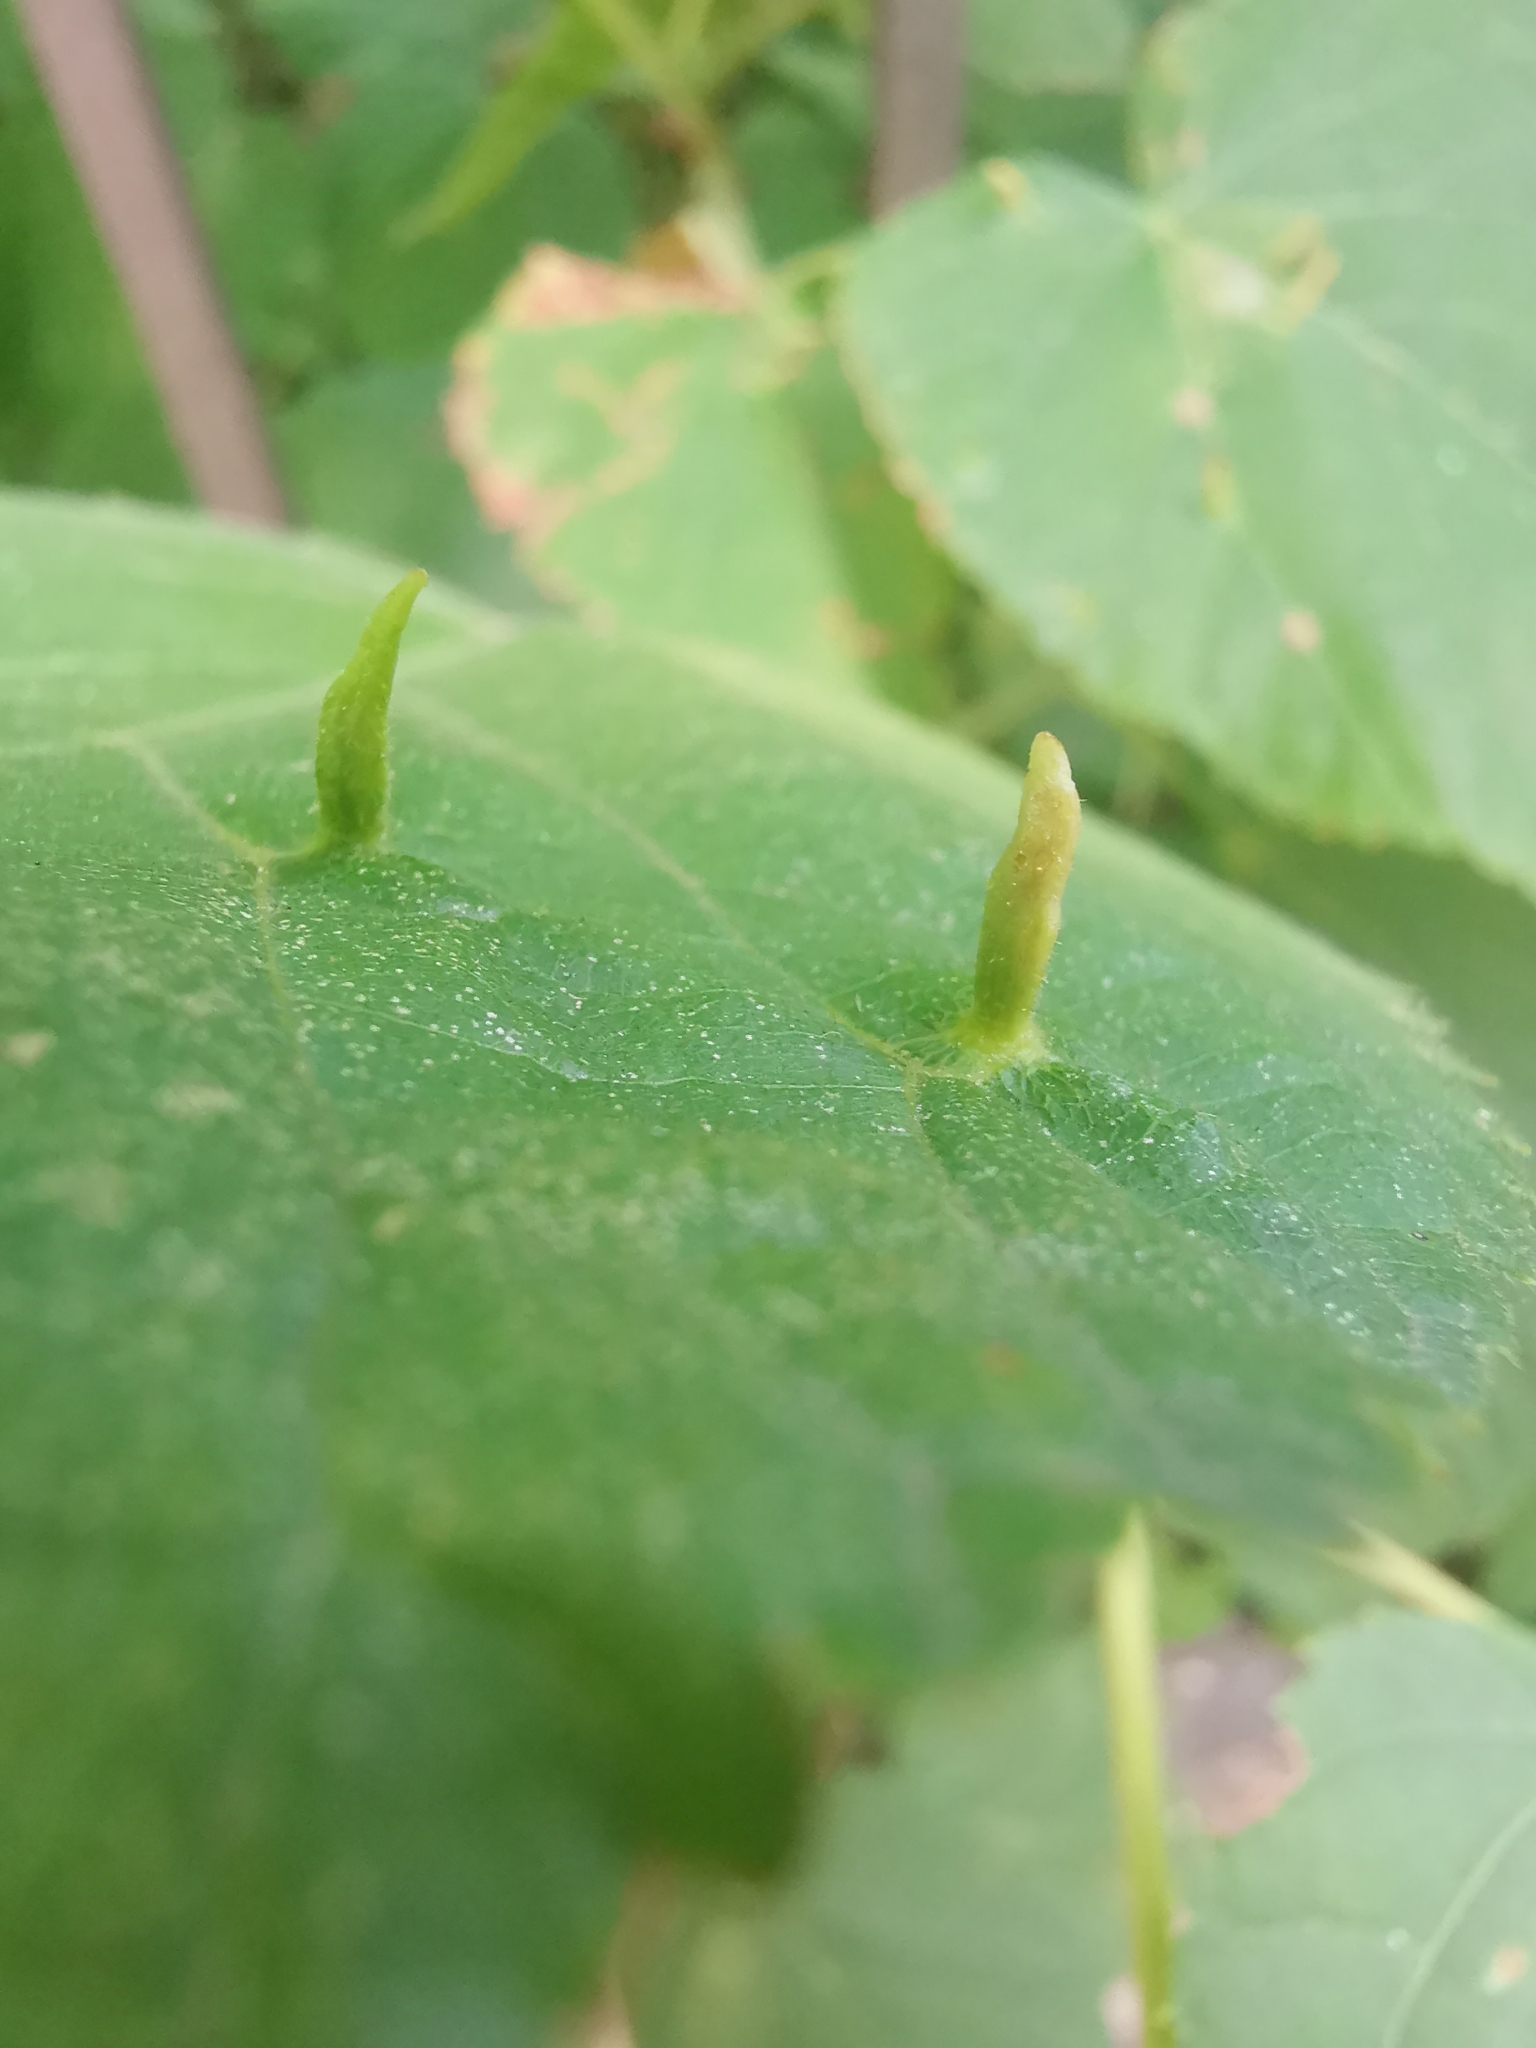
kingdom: Animalia
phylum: Arthropoda
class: Arachnida
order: Trombidiformes
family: Eriophyidae
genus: Eriophyes
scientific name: Eriophyes tiliae
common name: Red nail gall mite
